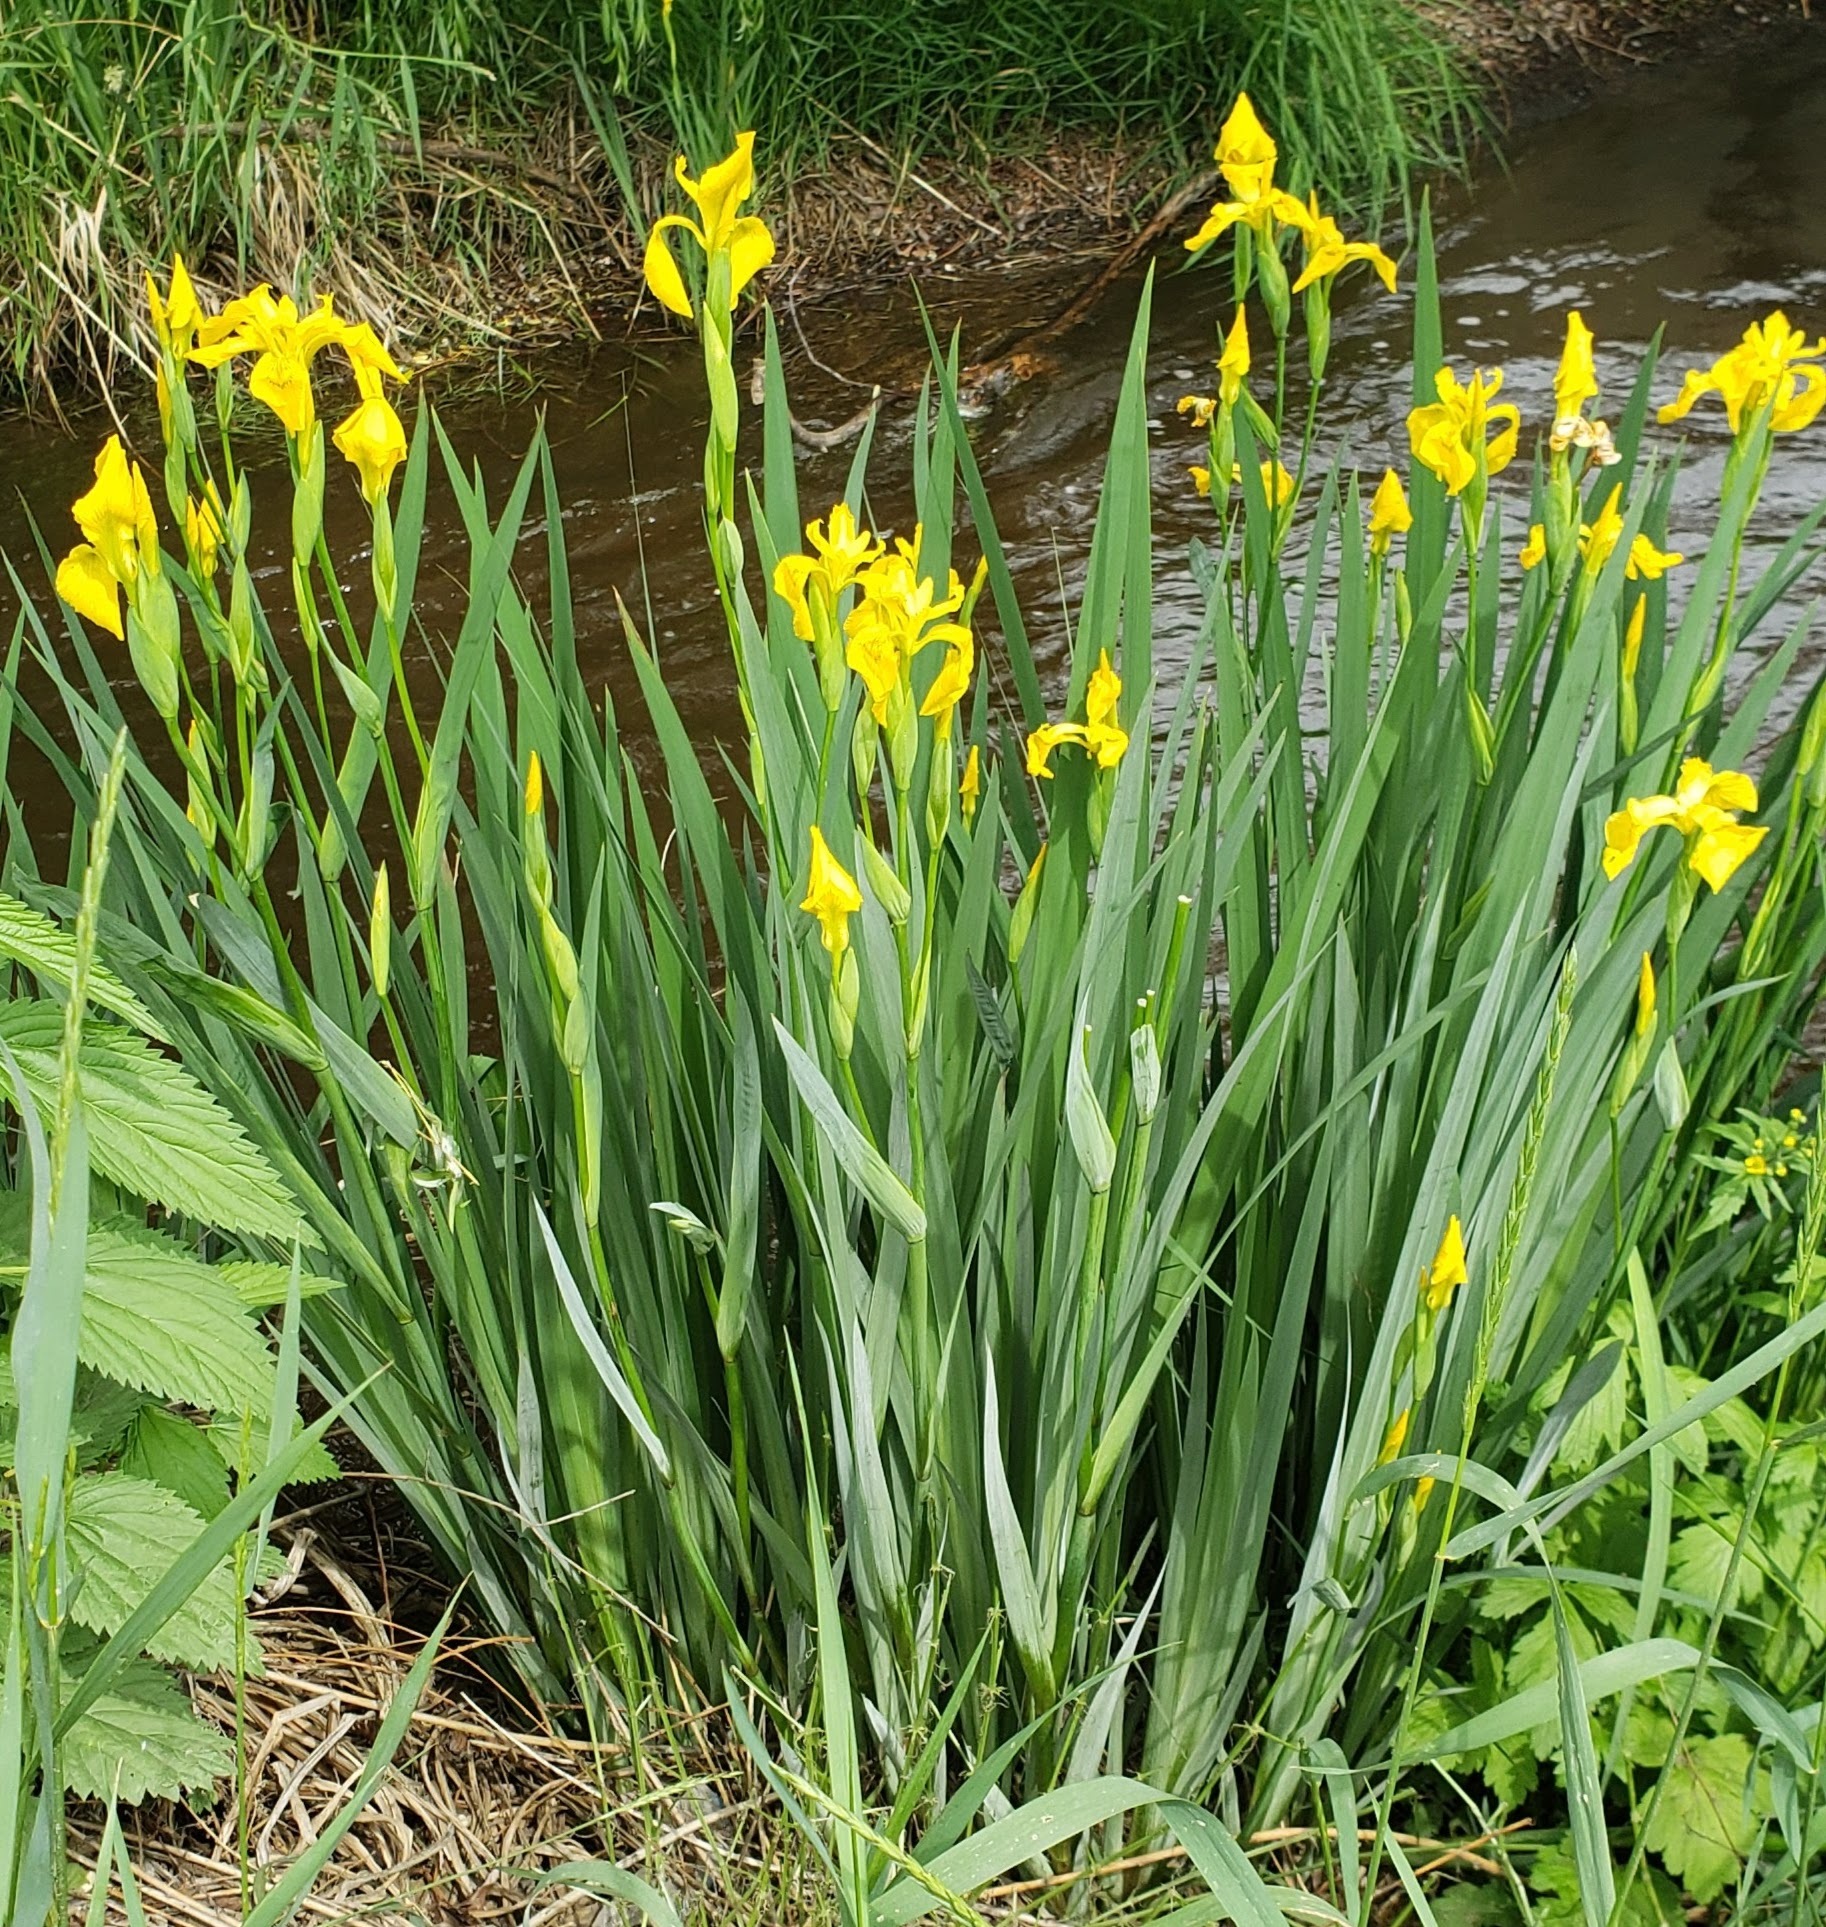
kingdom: Plantae
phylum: Tracheophyta
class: Liliopsida
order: Asparagales
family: Iridaceae
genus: Iris
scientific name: Iris pseudacorus
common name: Yellow flag
